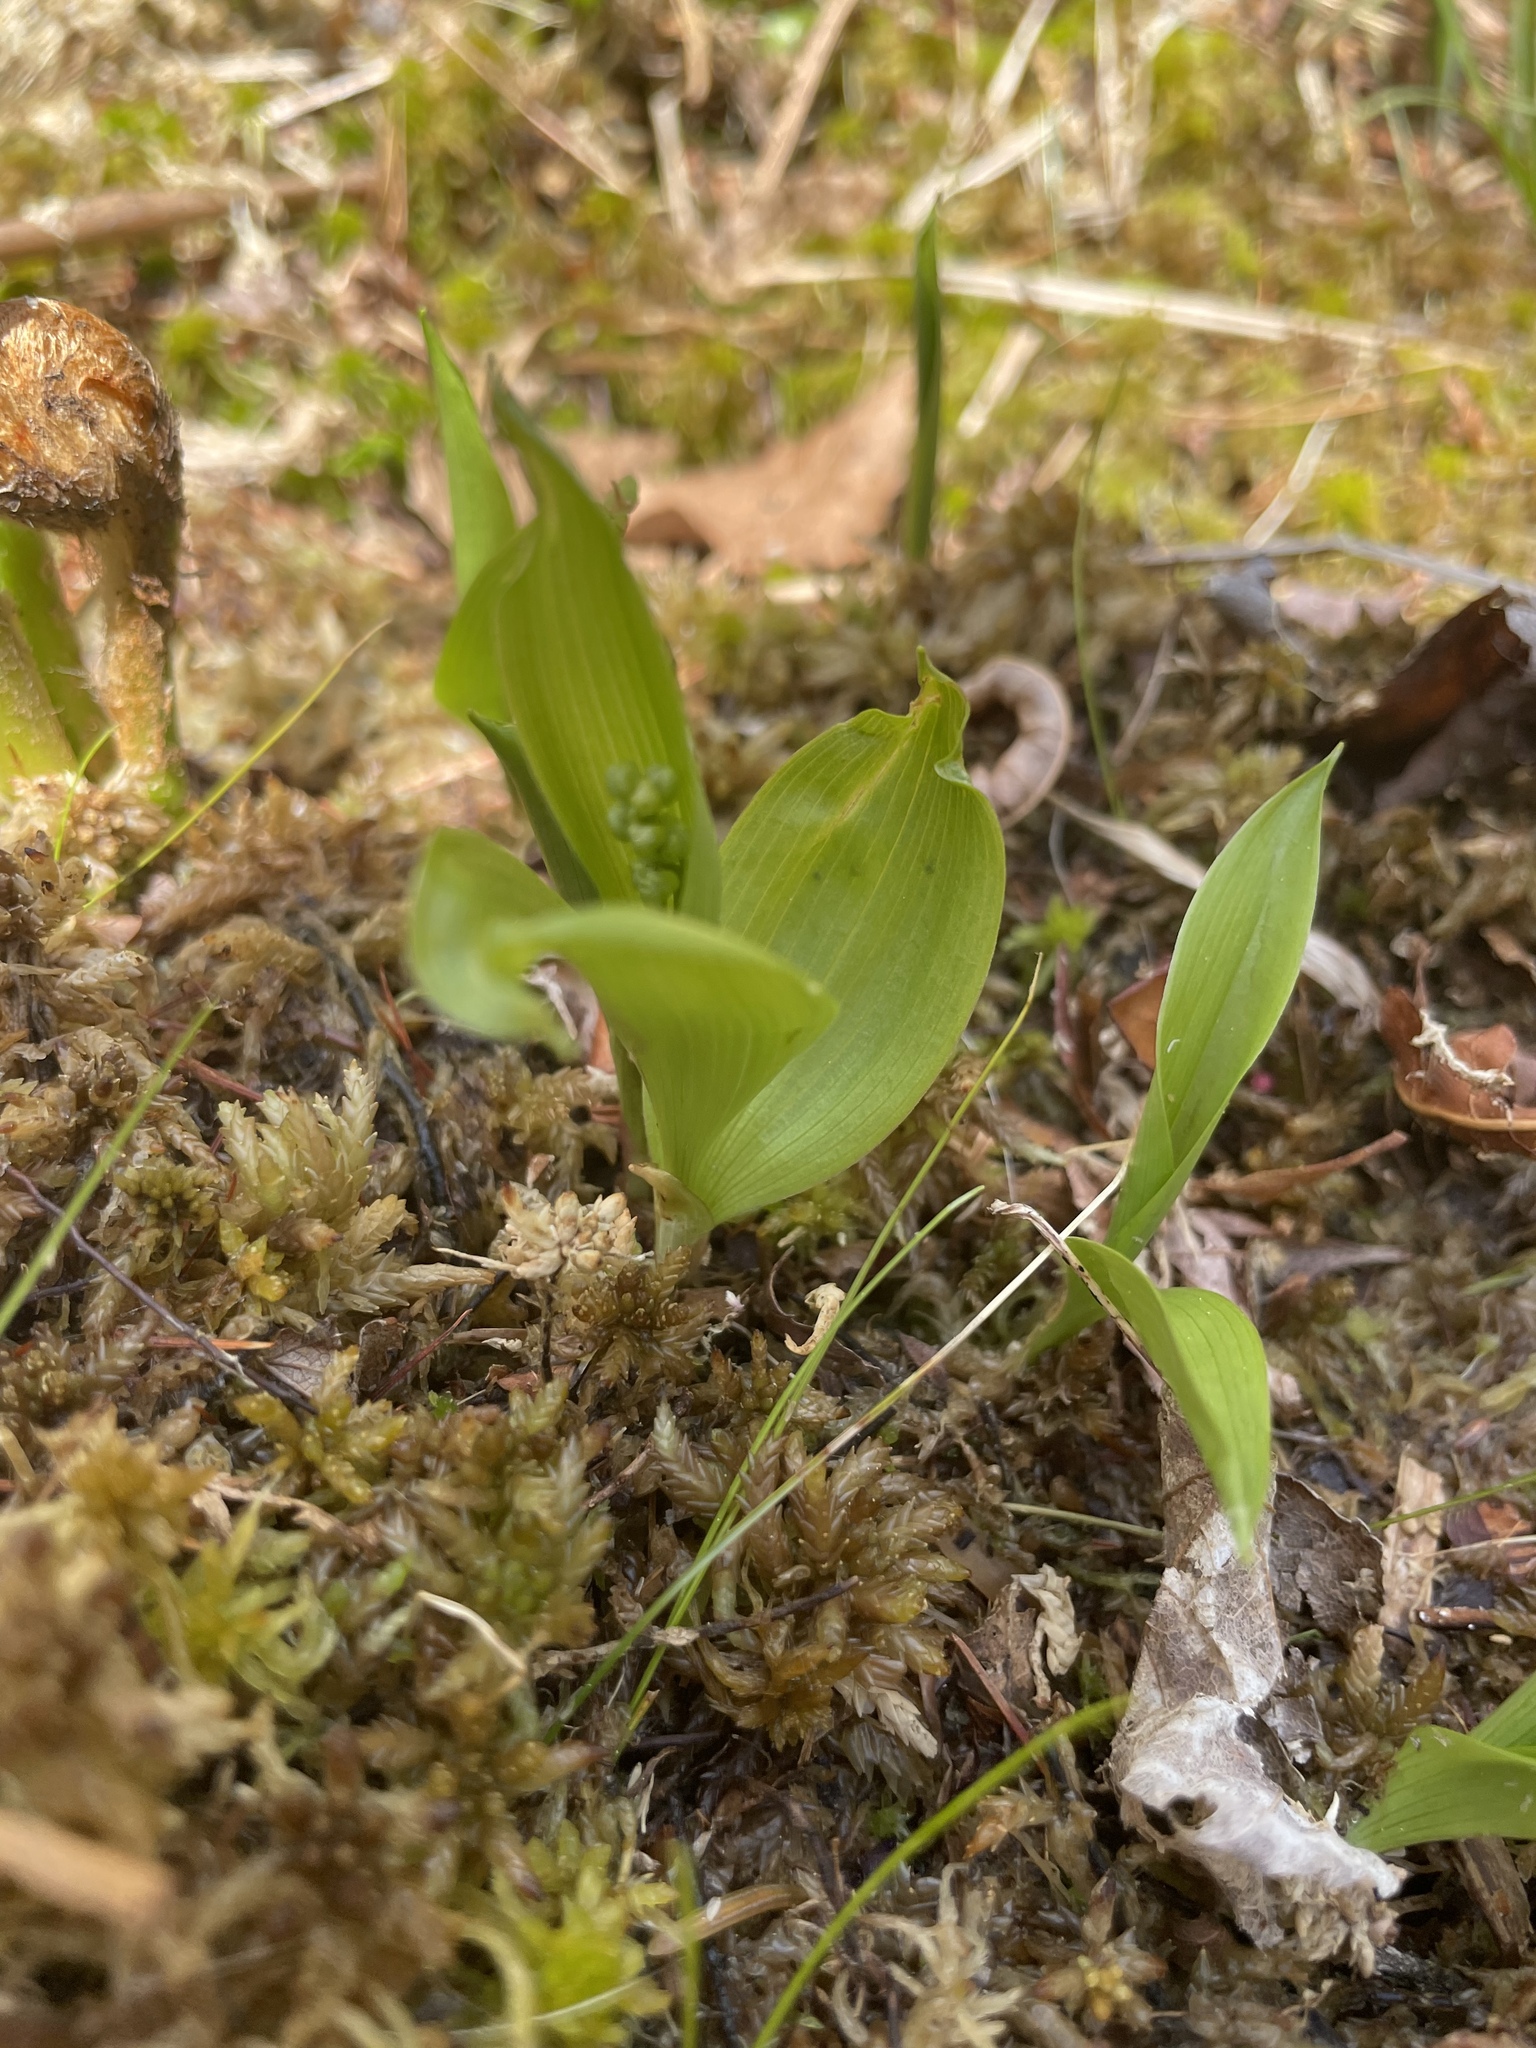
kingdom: Plantae
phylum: Tracheophyta
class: Liliopsida
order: Asparagales
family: Asparagaceae
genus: Maianthemum
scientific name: Maianthemum trifolium
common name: Swamp false solomon's seal
